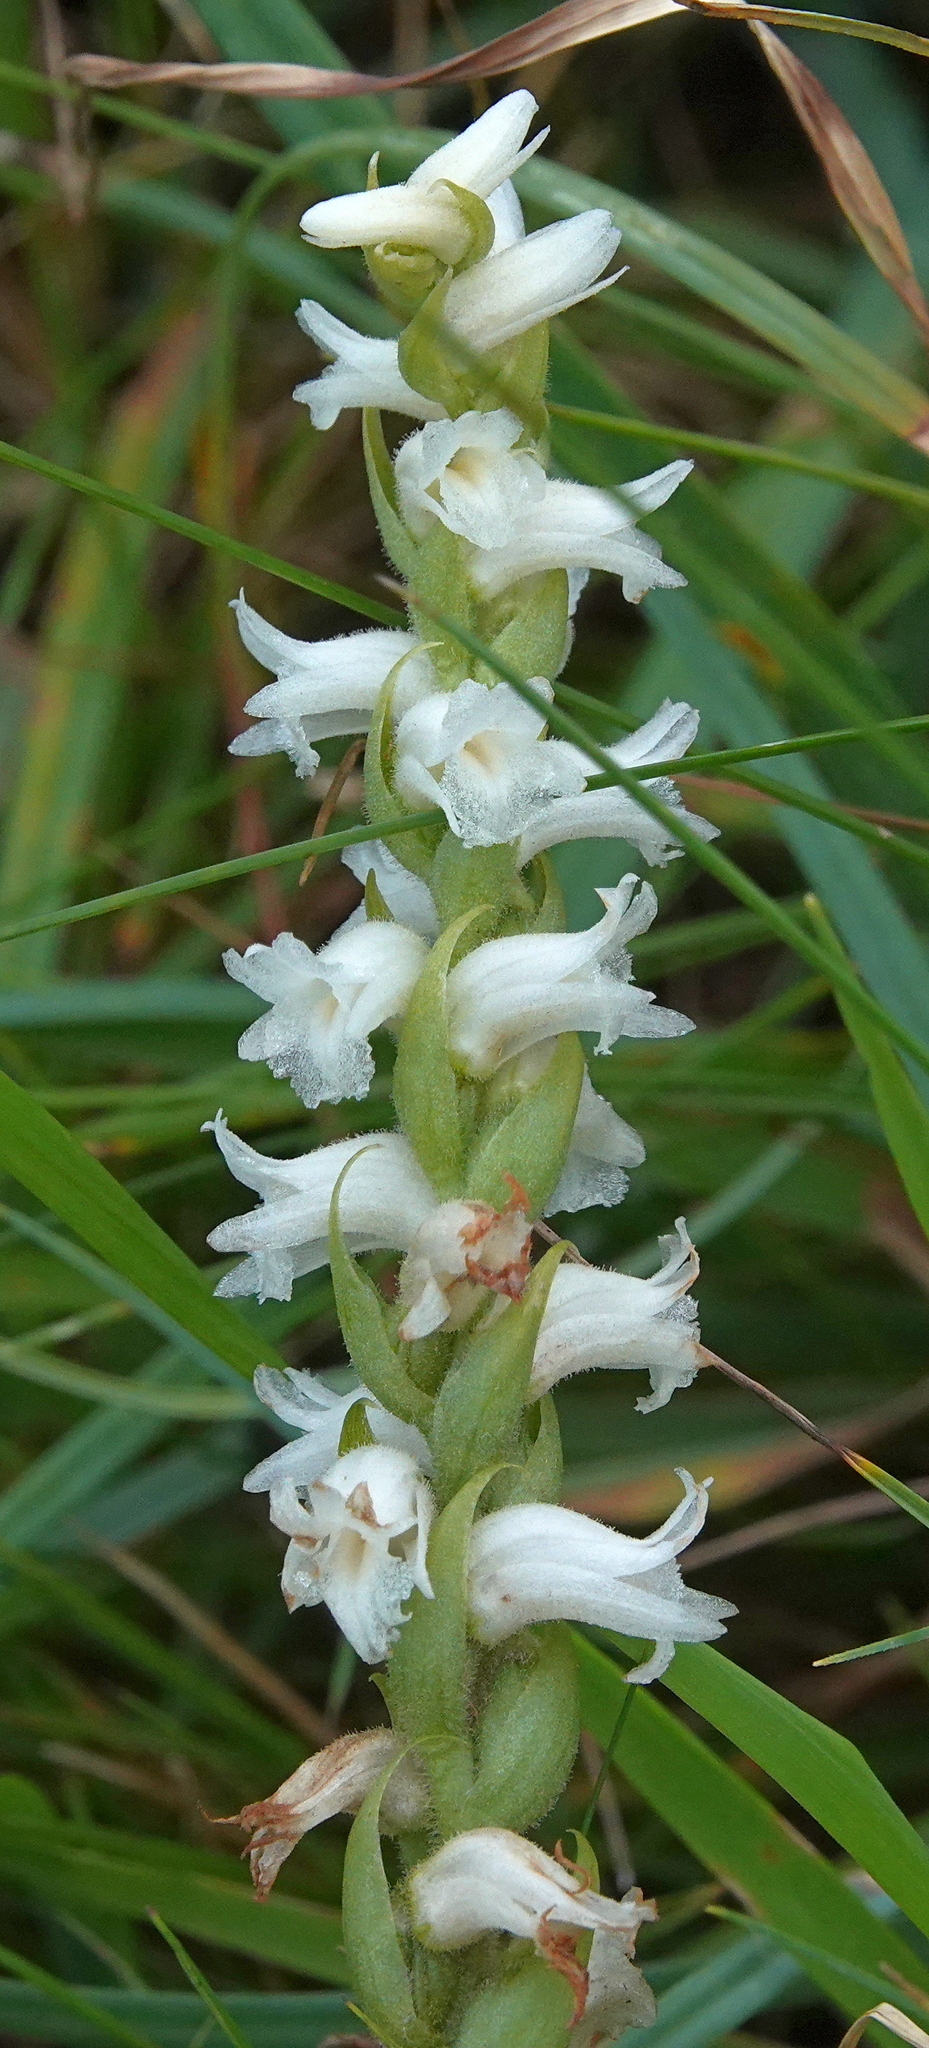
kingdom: Plantae
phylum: Tracheophyta
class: Liliopsida
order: Asparagales
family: Orchidaceae
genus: Spiranthes
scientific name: Spiranthes arcisepala
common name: Appalachian ladies'-tresses
